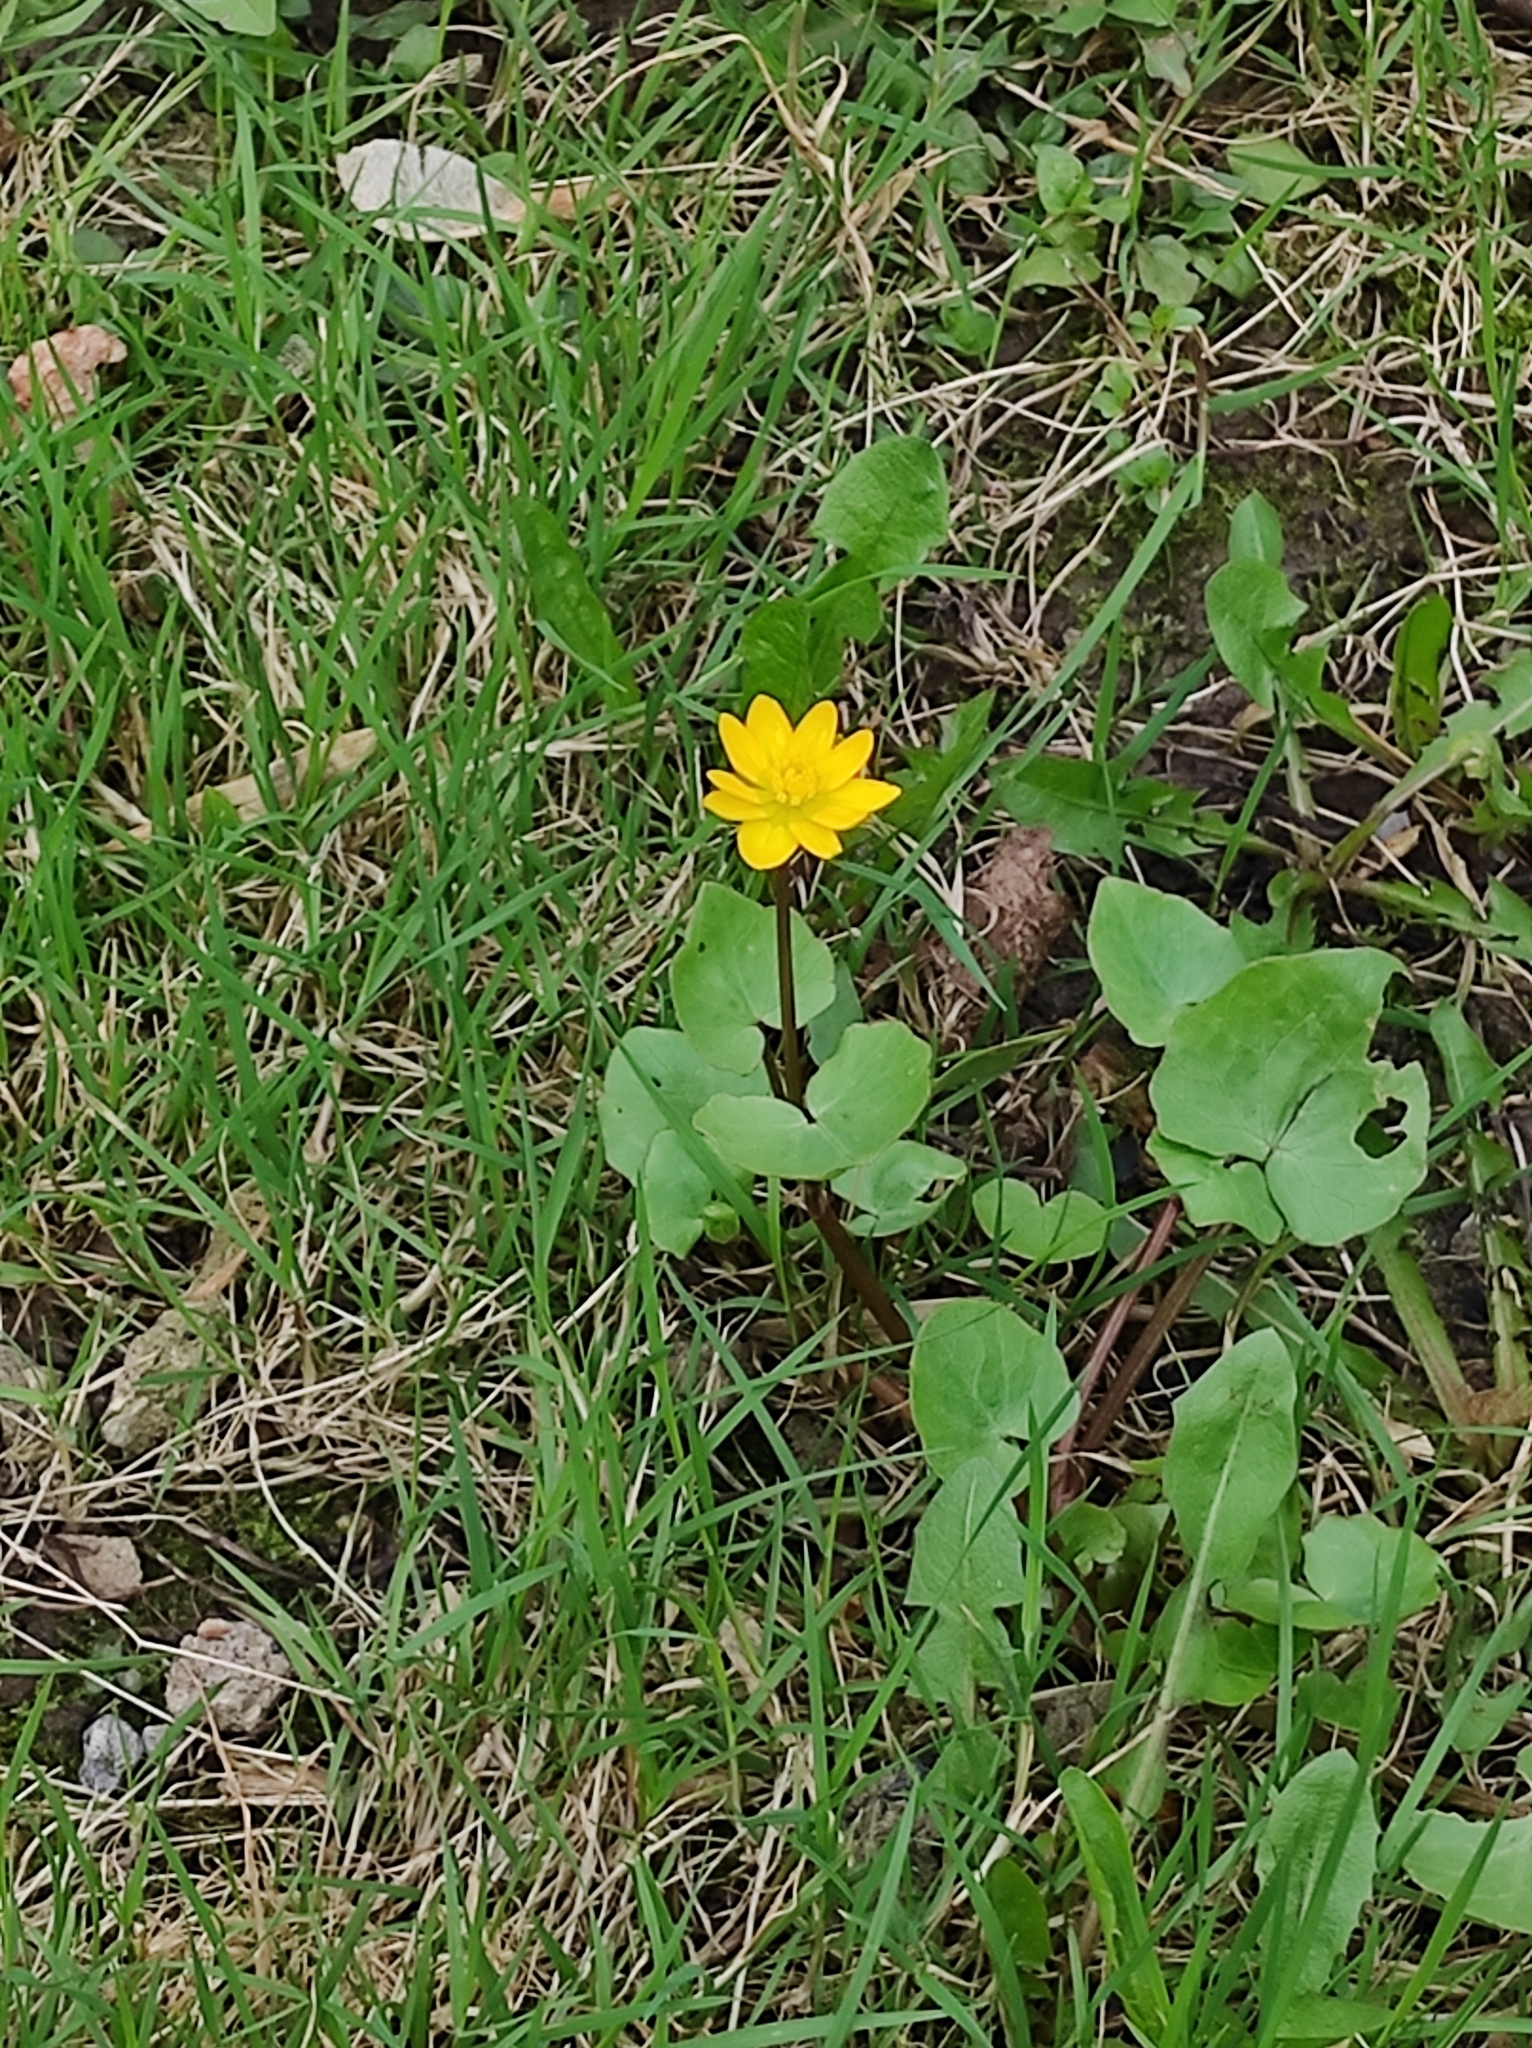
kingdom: Plantae
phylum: Tracheophyta
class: Magnoliopsida
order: Ranunculales
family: Ranunculaceae
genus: Ficaria
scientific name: Ficaria verna
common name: Lesser celandine
